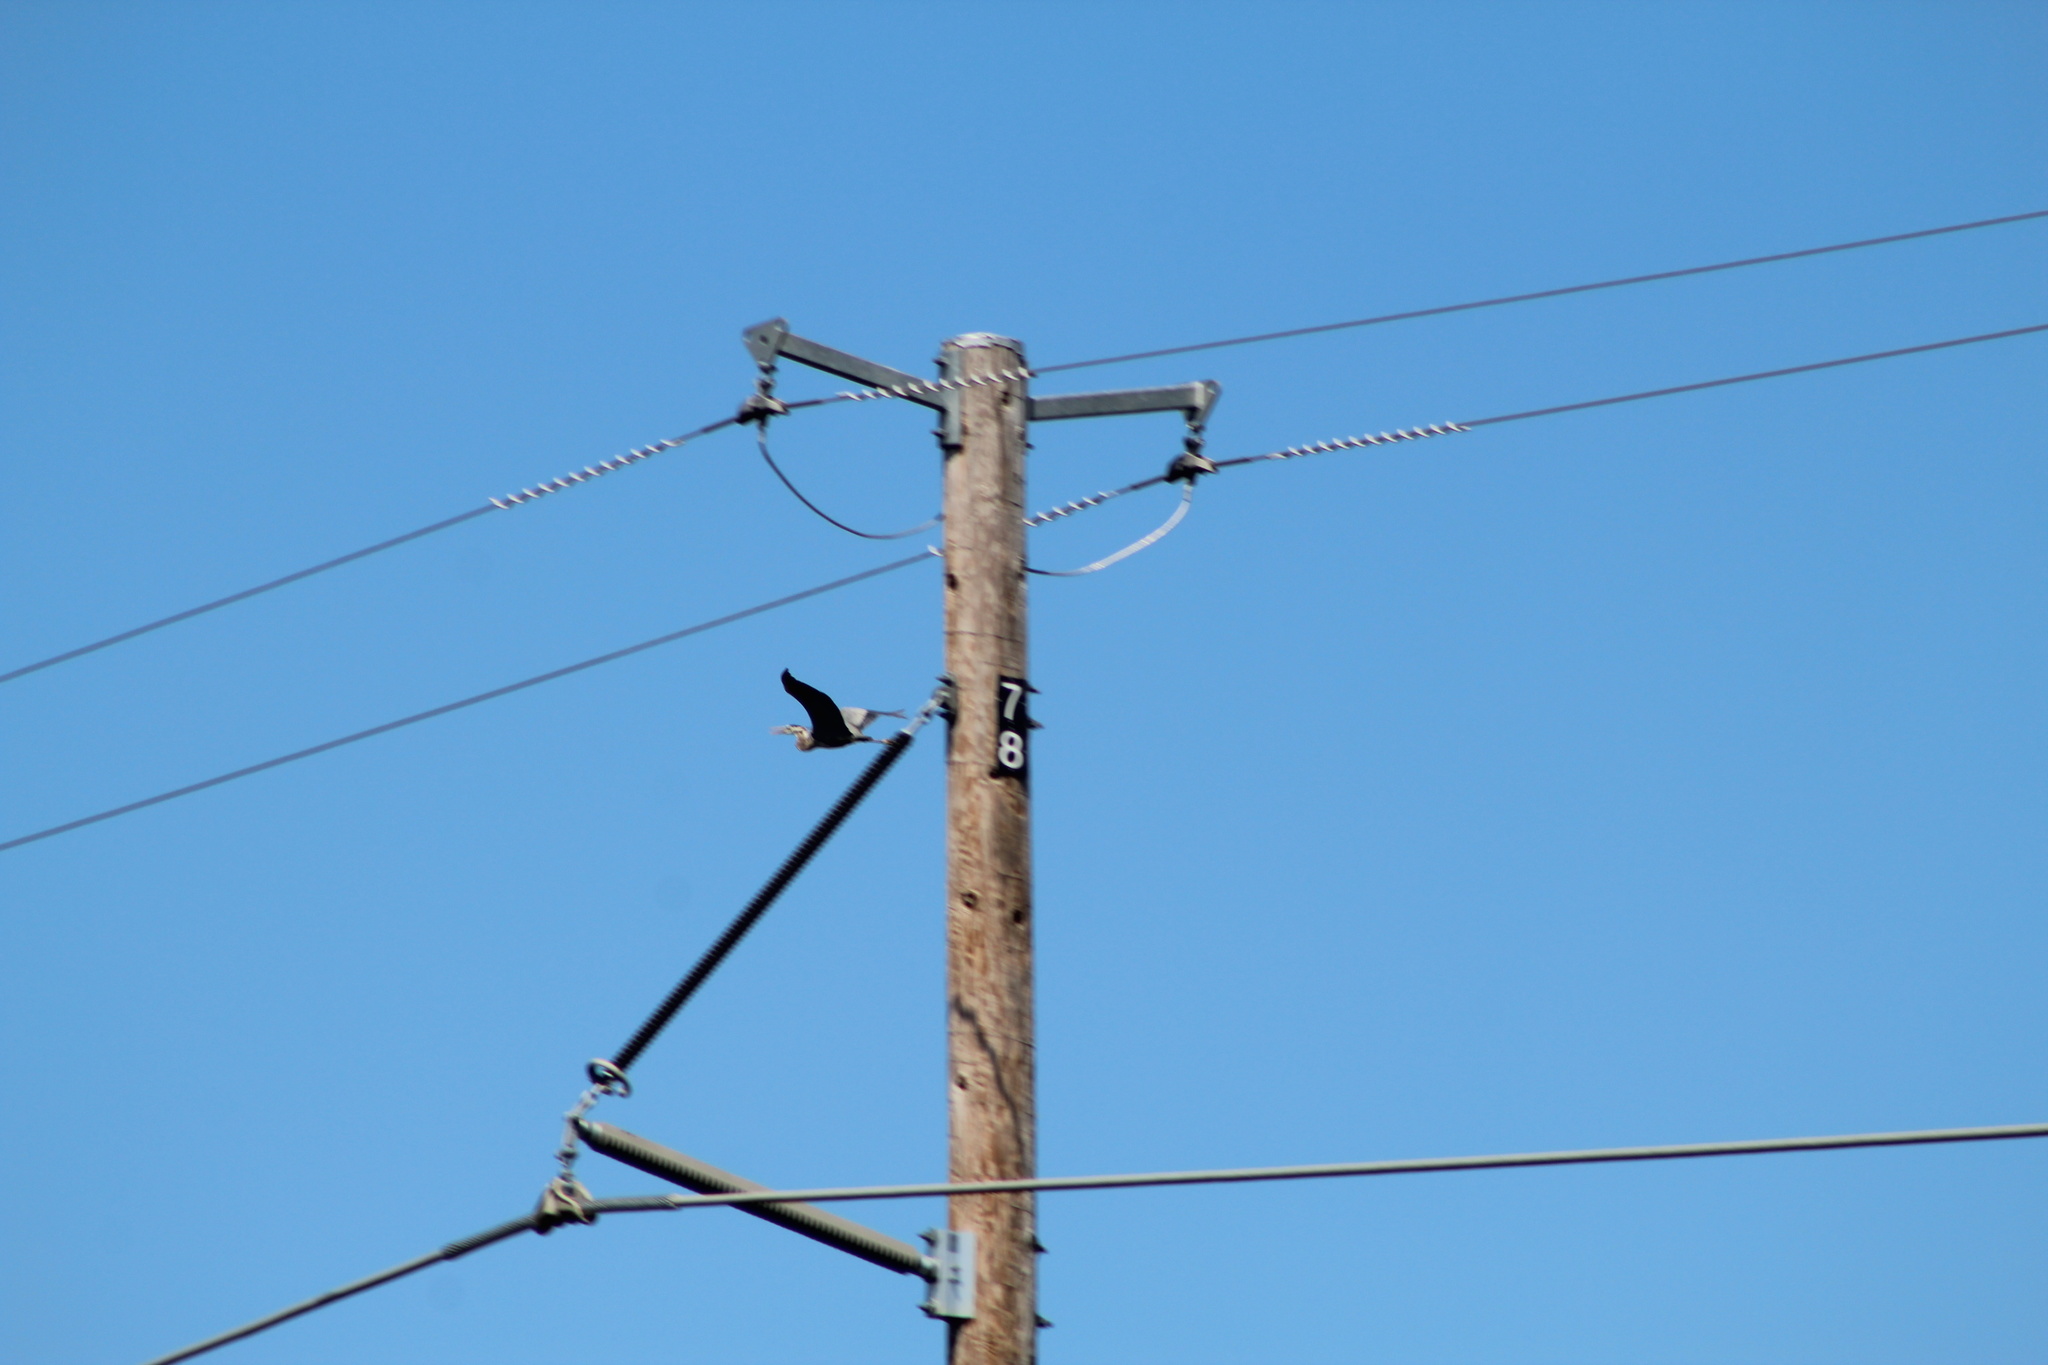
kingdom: Animalia
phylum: Chordata
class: Aves
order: Pelecaniformes
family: Ardeidae
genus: Ardea
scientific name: Ardea herodias
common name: Great blue heron
